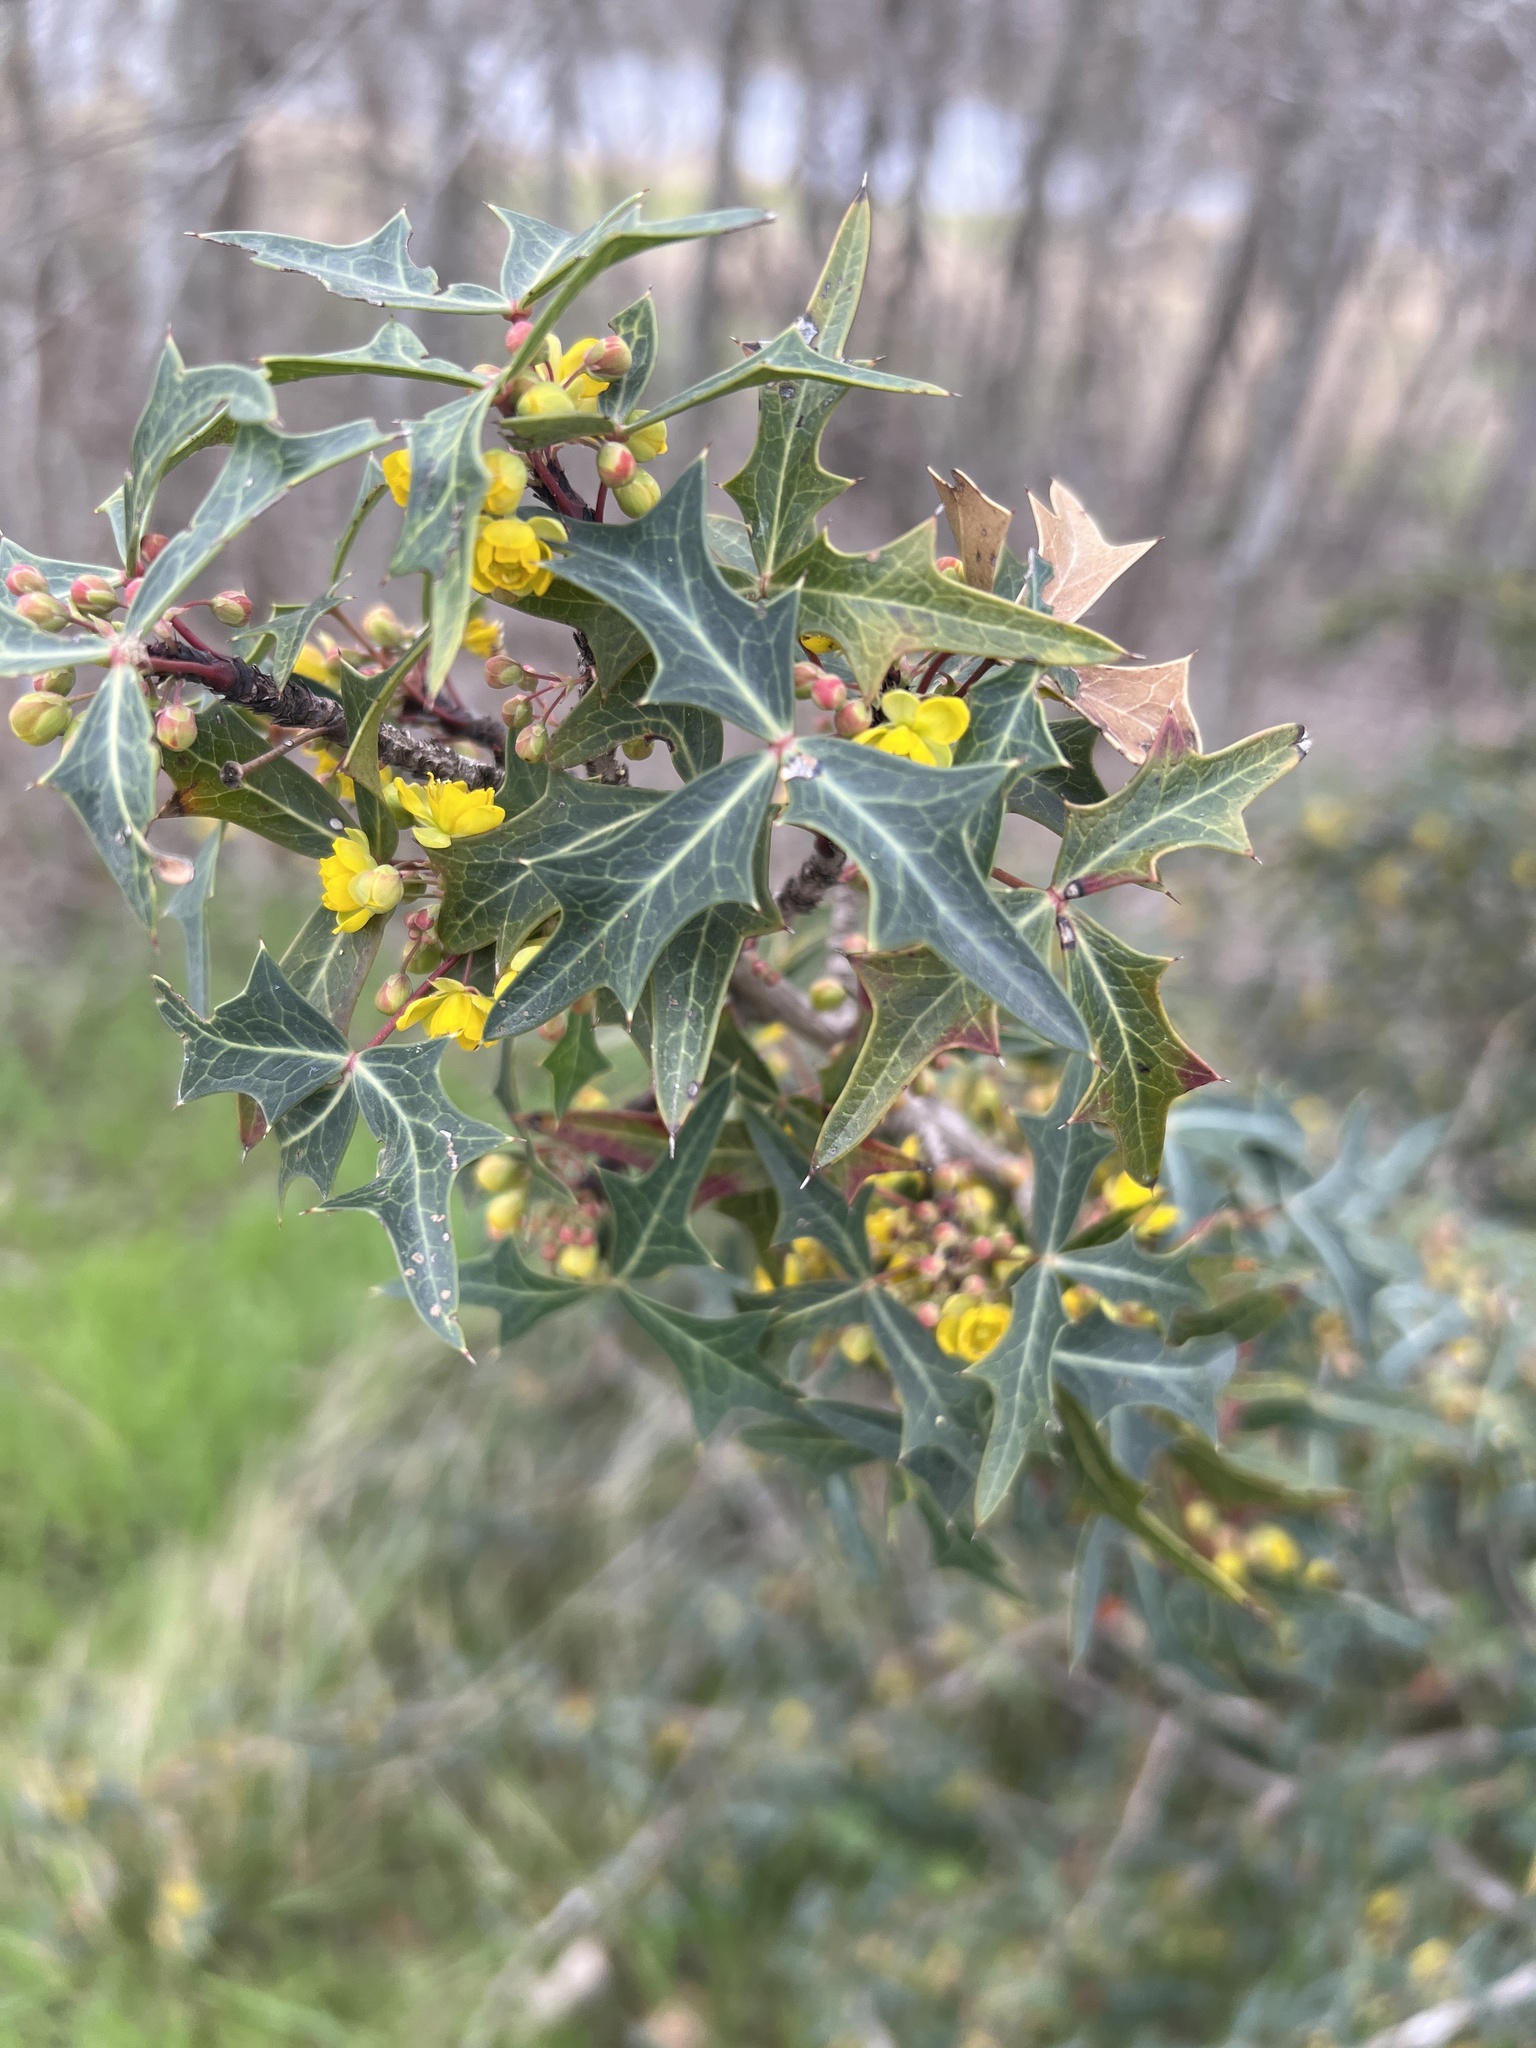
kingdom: Plantae
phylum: Tracheophyta
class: Magnoliopsida
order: Ranunculales
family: Berberidaceae
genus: Alloberberis
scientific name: Alloberberis trifoliolata
